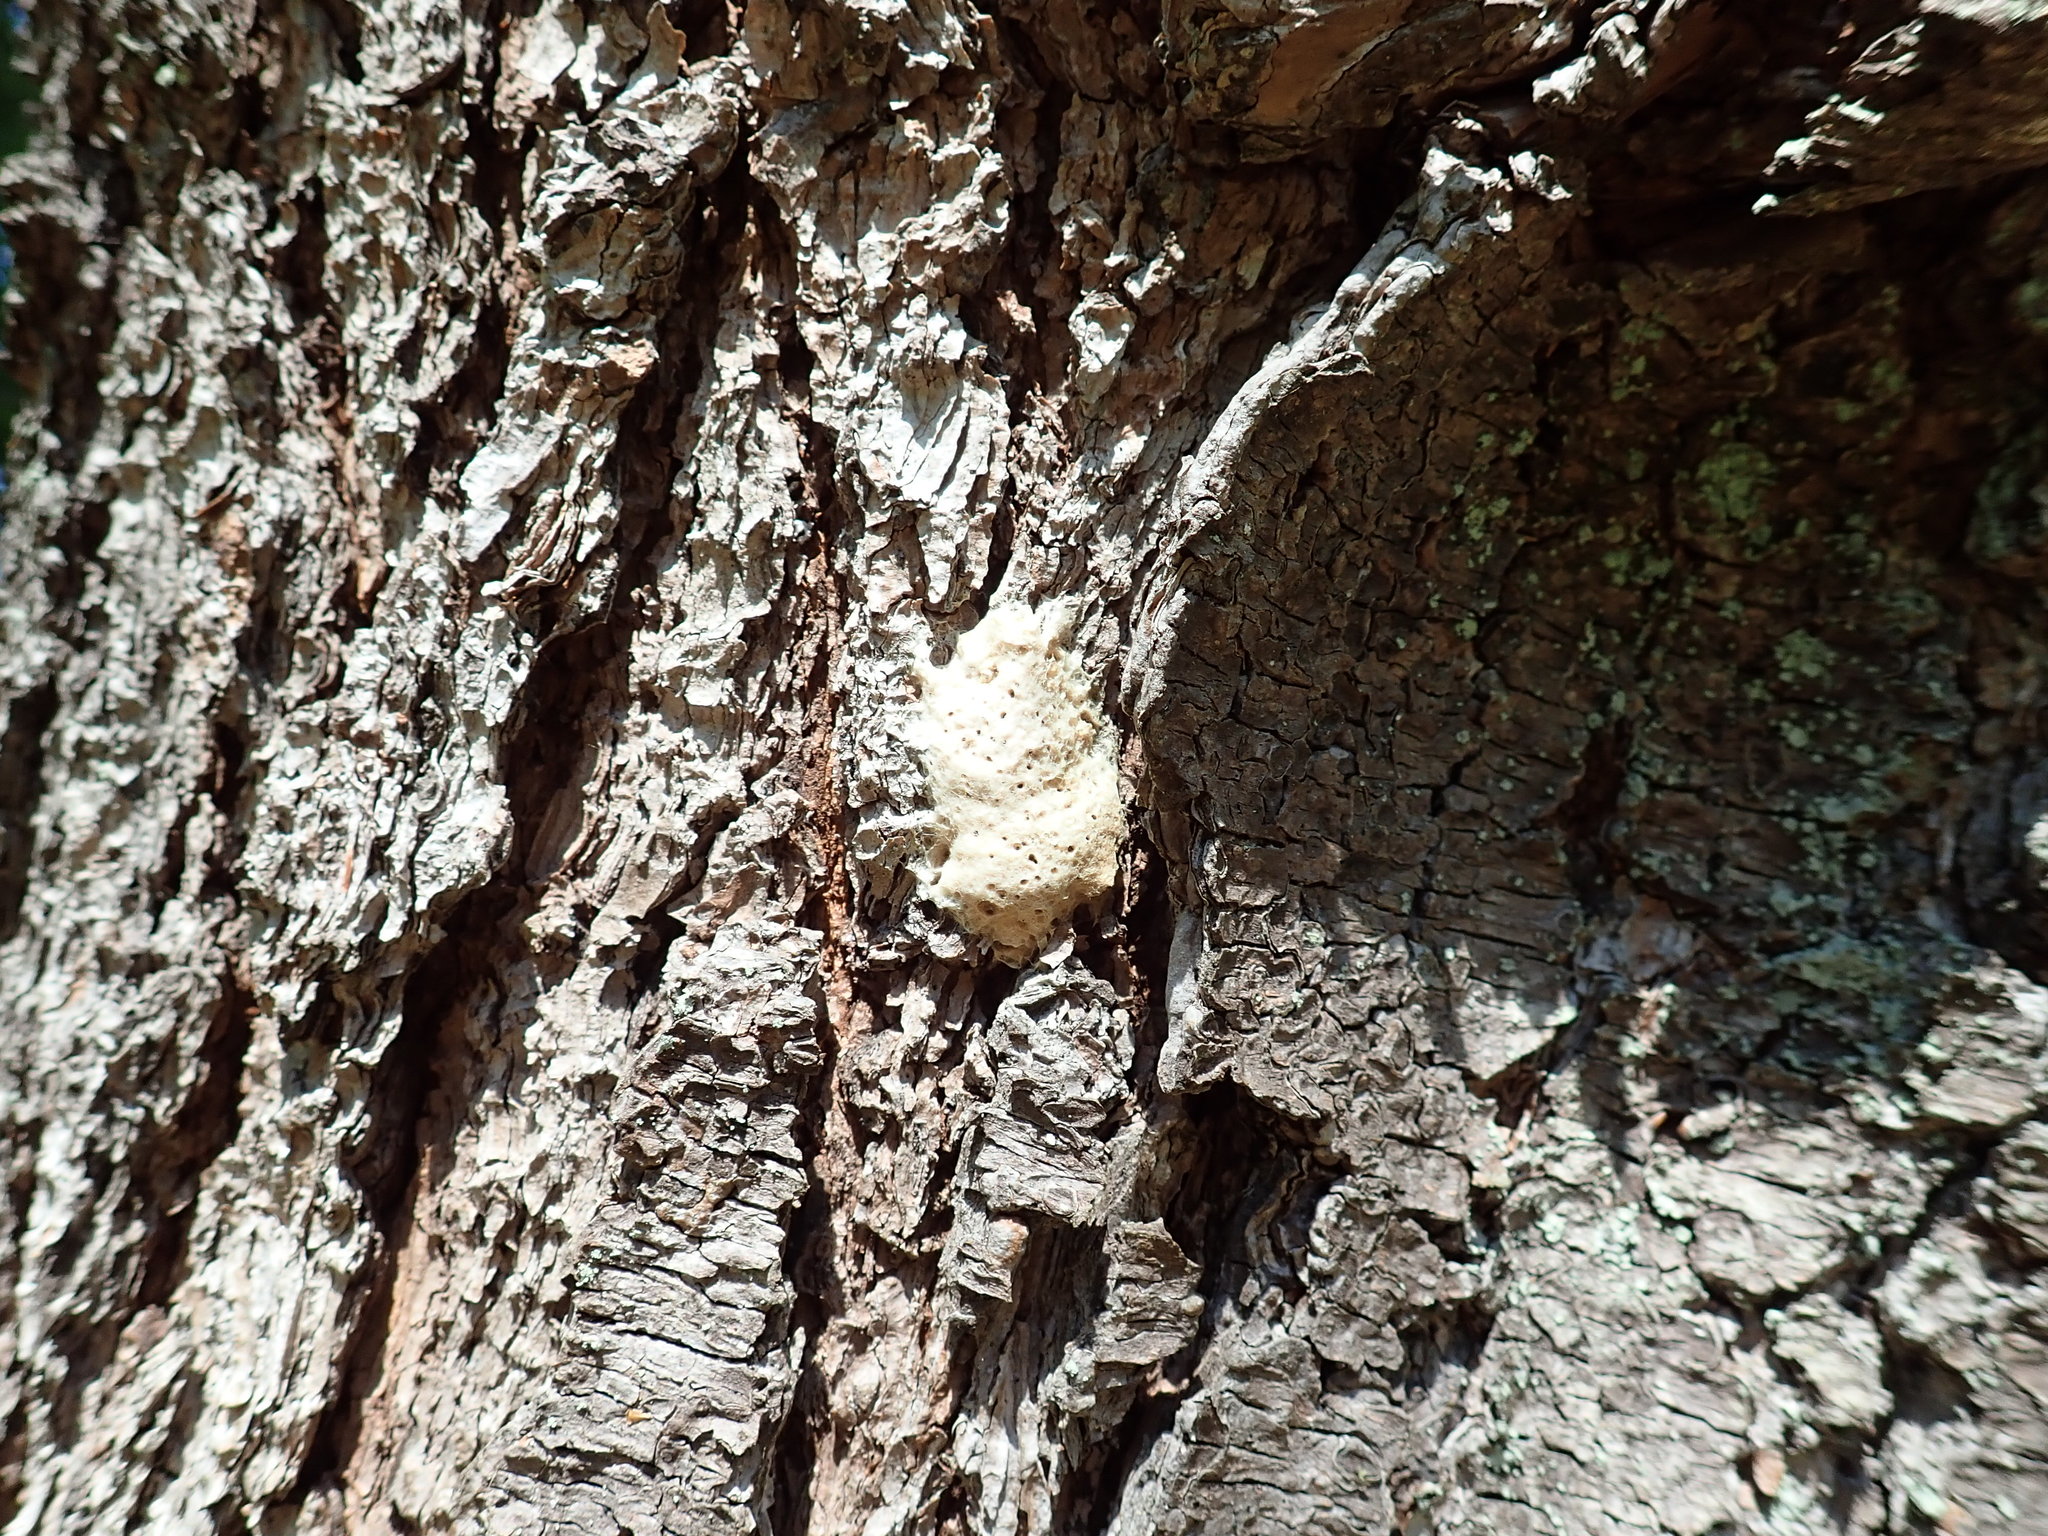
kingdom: Animalia
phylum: Arthropoda
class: Insecta
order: Lepidoptera
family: Erebidae
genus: Lymantria
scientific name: Lymantria dispar
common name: Gypsy moth
